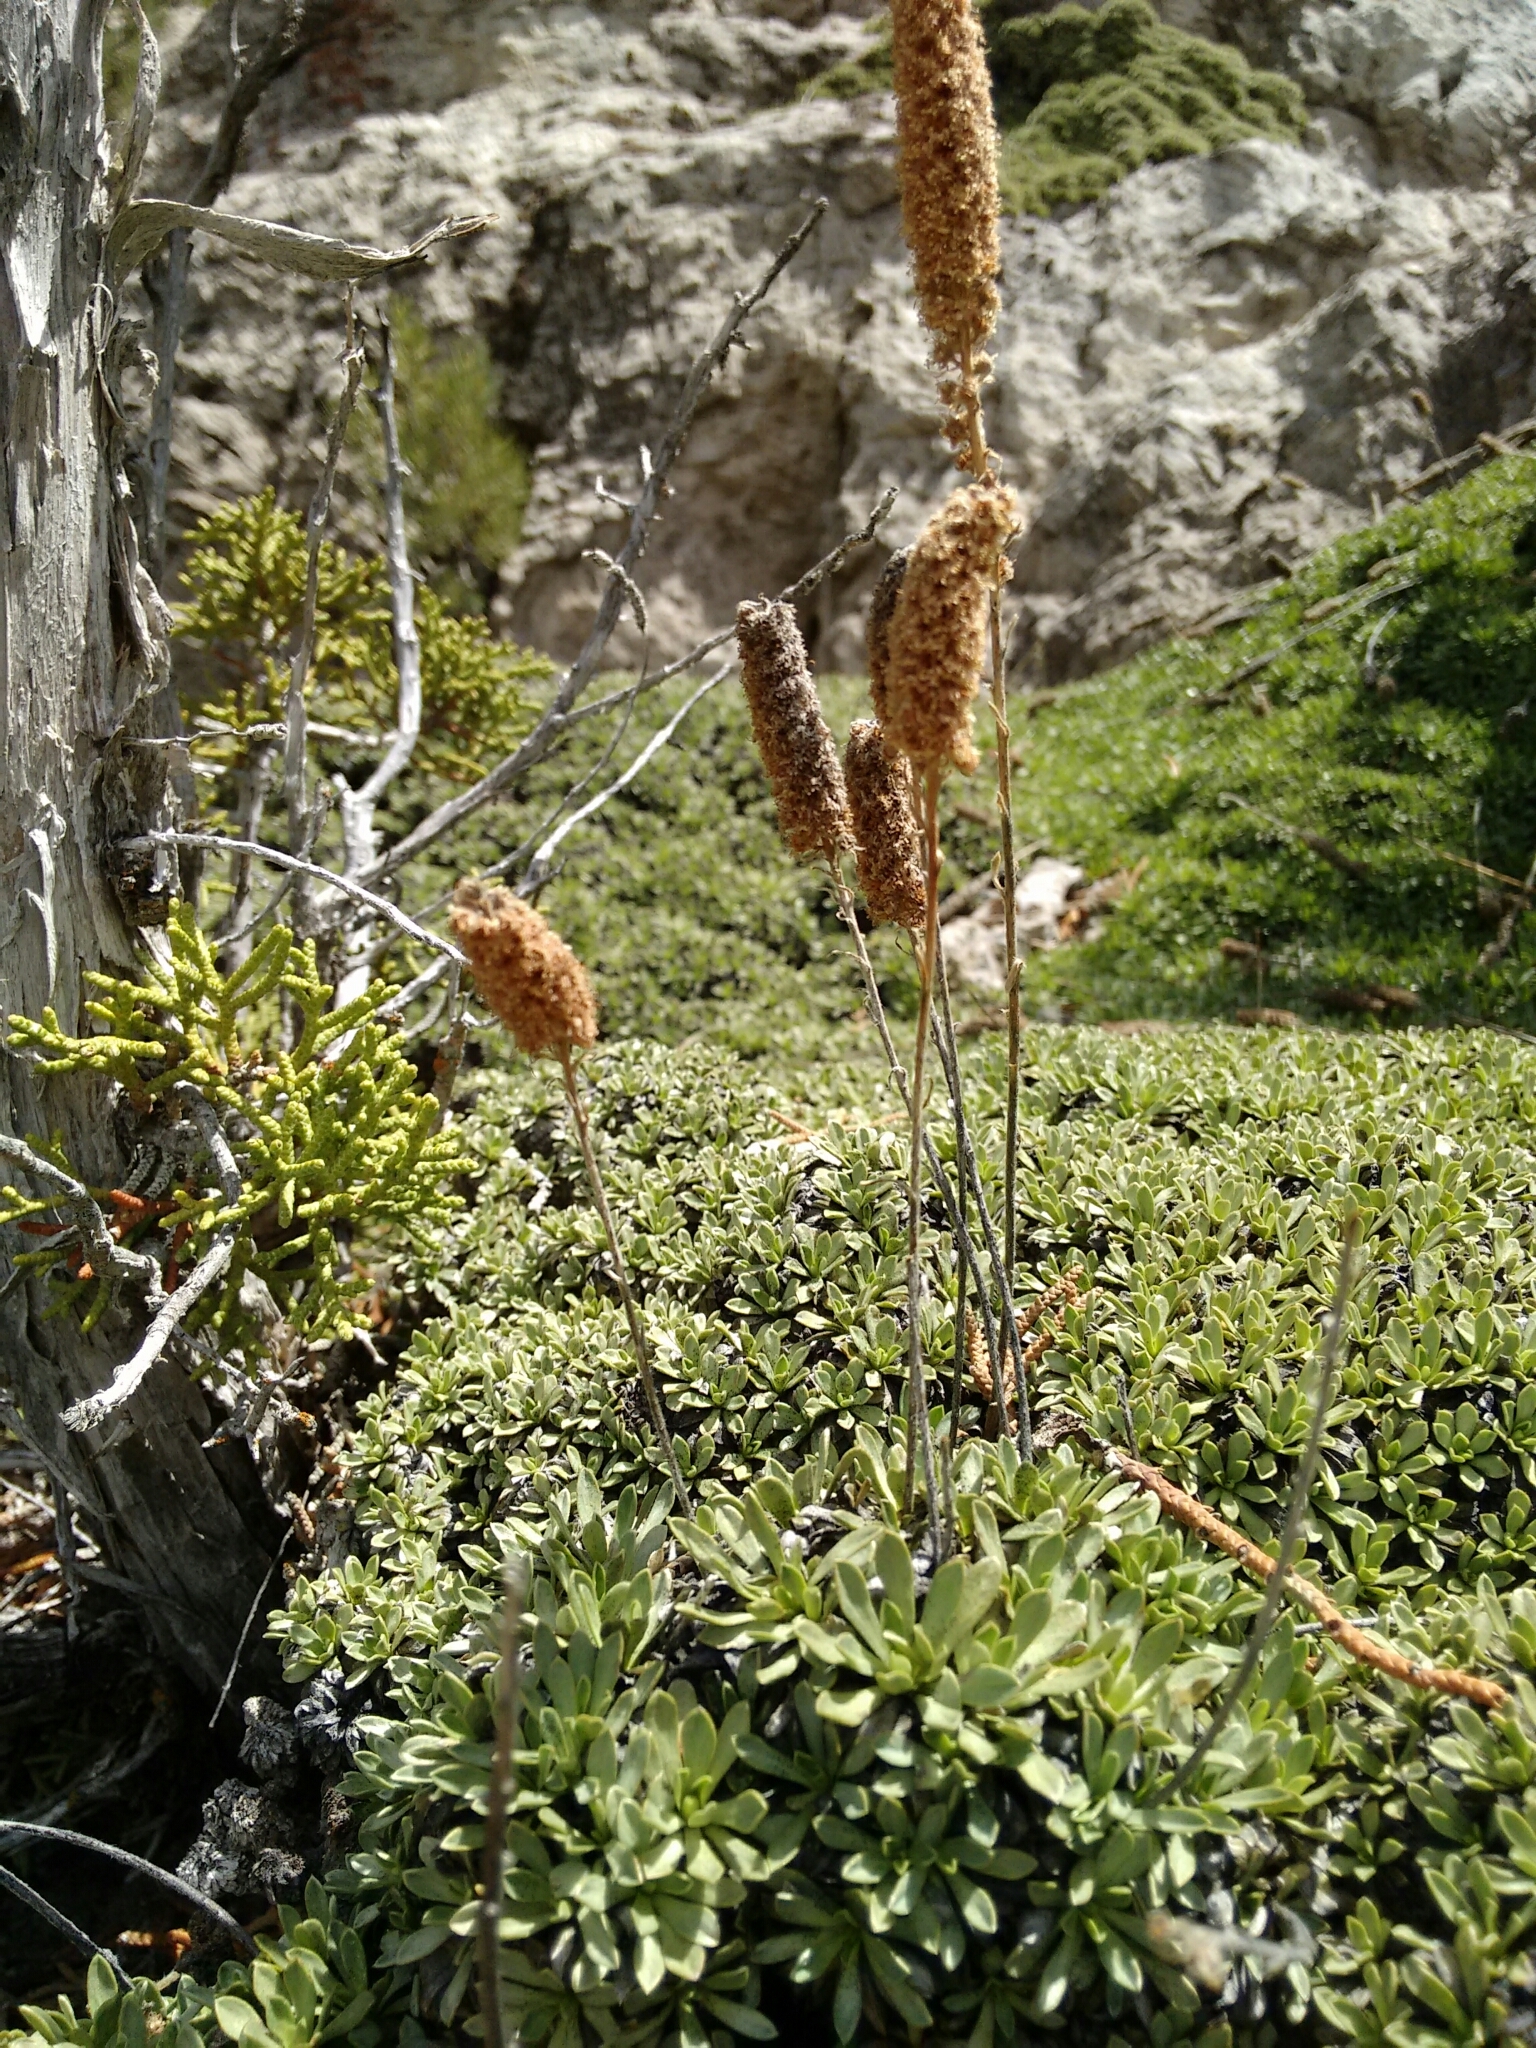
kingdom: Plantae
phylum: Tracheophyta
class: Magnoliopsida
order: Rosales
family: Rosaceae
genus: Petrophytum
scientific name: Petrophytum caespitosum
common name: Mat rockspirea
